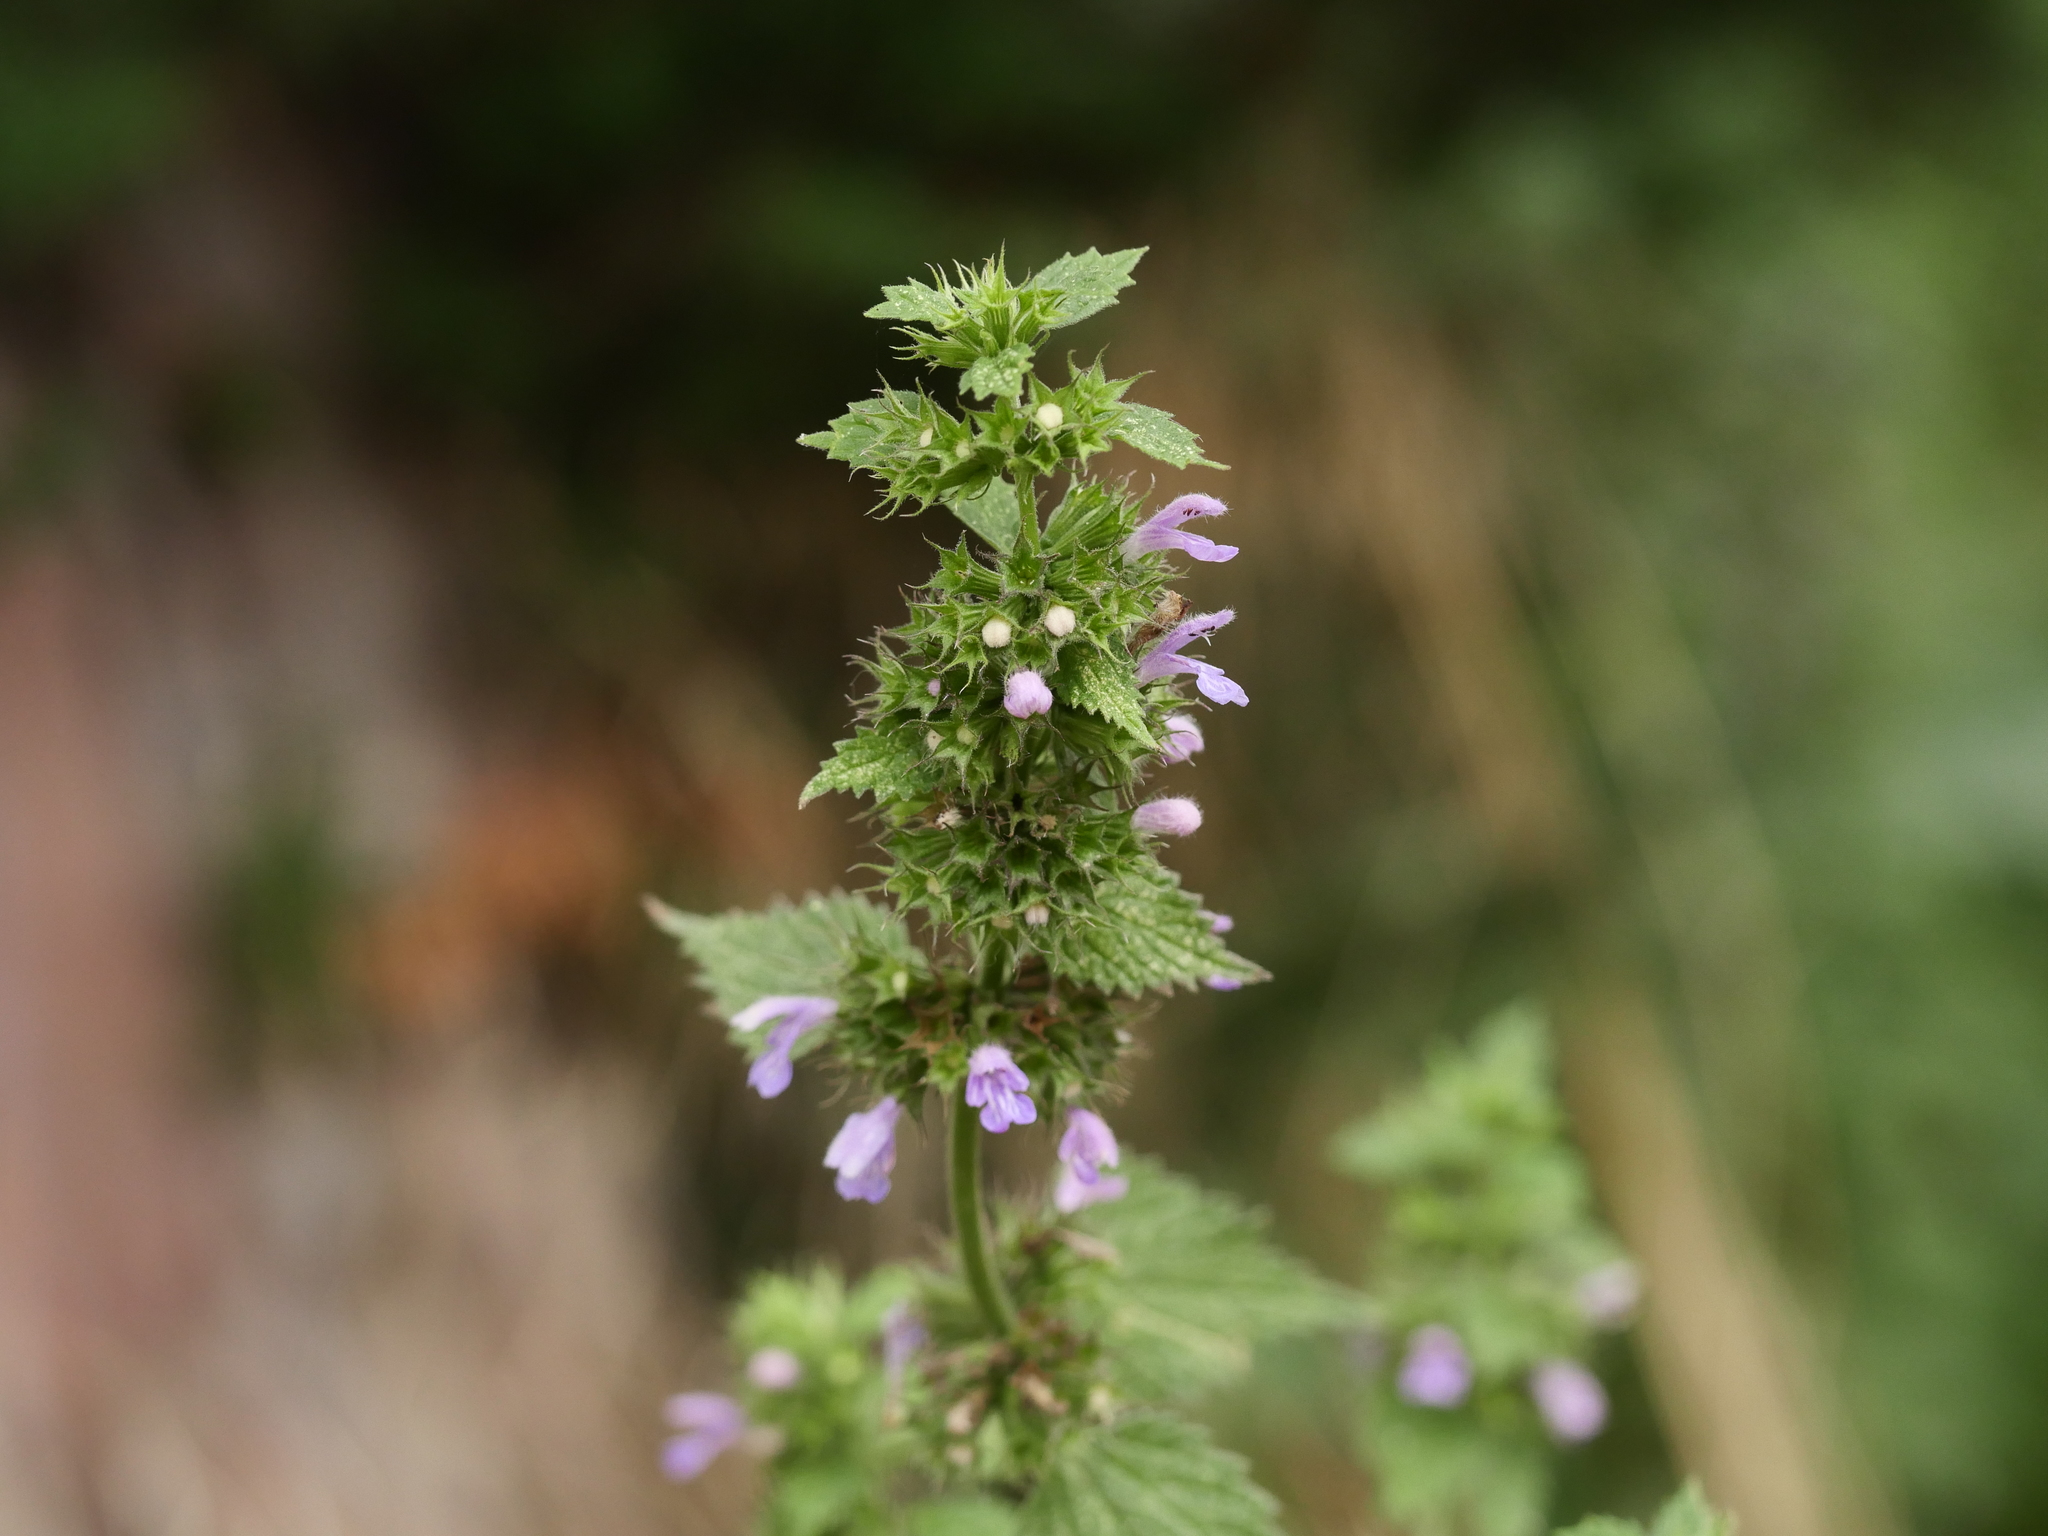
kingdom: Plantae
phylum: Tracheophyta
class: Magnoliopsida
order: Lamiales
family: Lamiaceae
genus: Ballota
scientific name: Ballota nigra
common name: Black horehound
